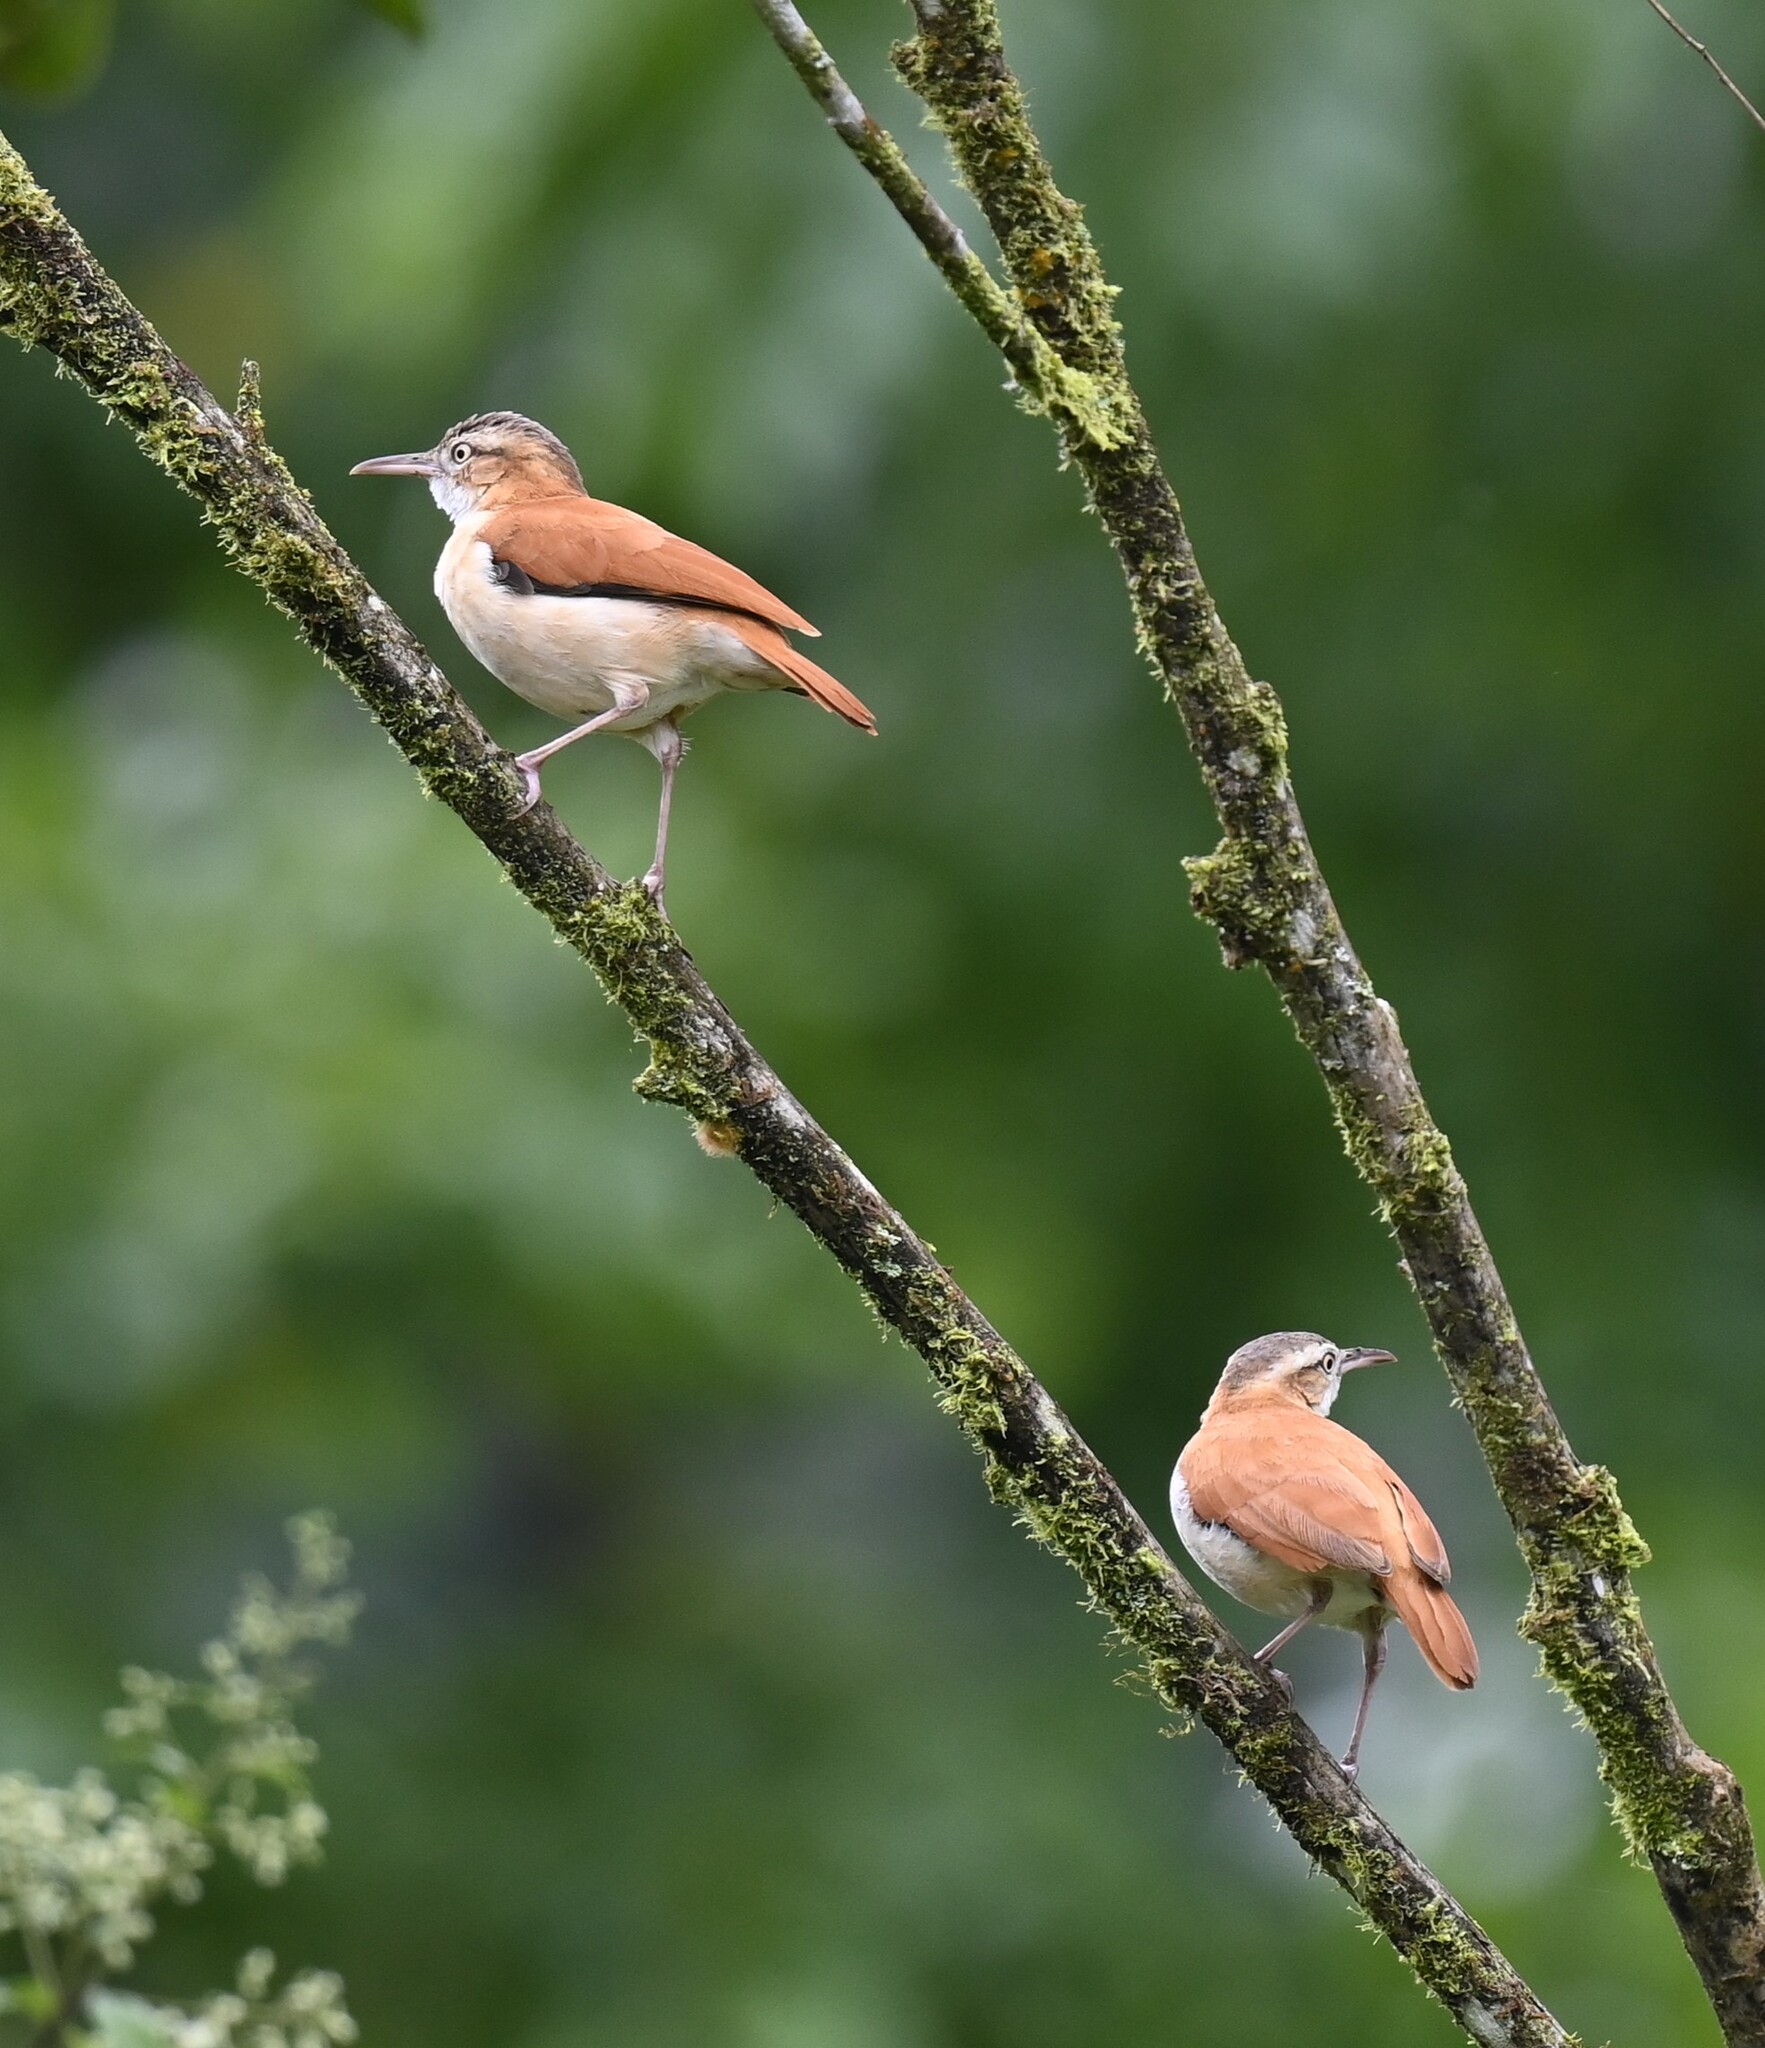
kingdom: Animalia
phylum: Chordata
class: Aves
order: Passeriformes
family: Furnariidae
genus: Furnarius
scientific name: Furnarius leucopus
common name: Pale-legged hornero
